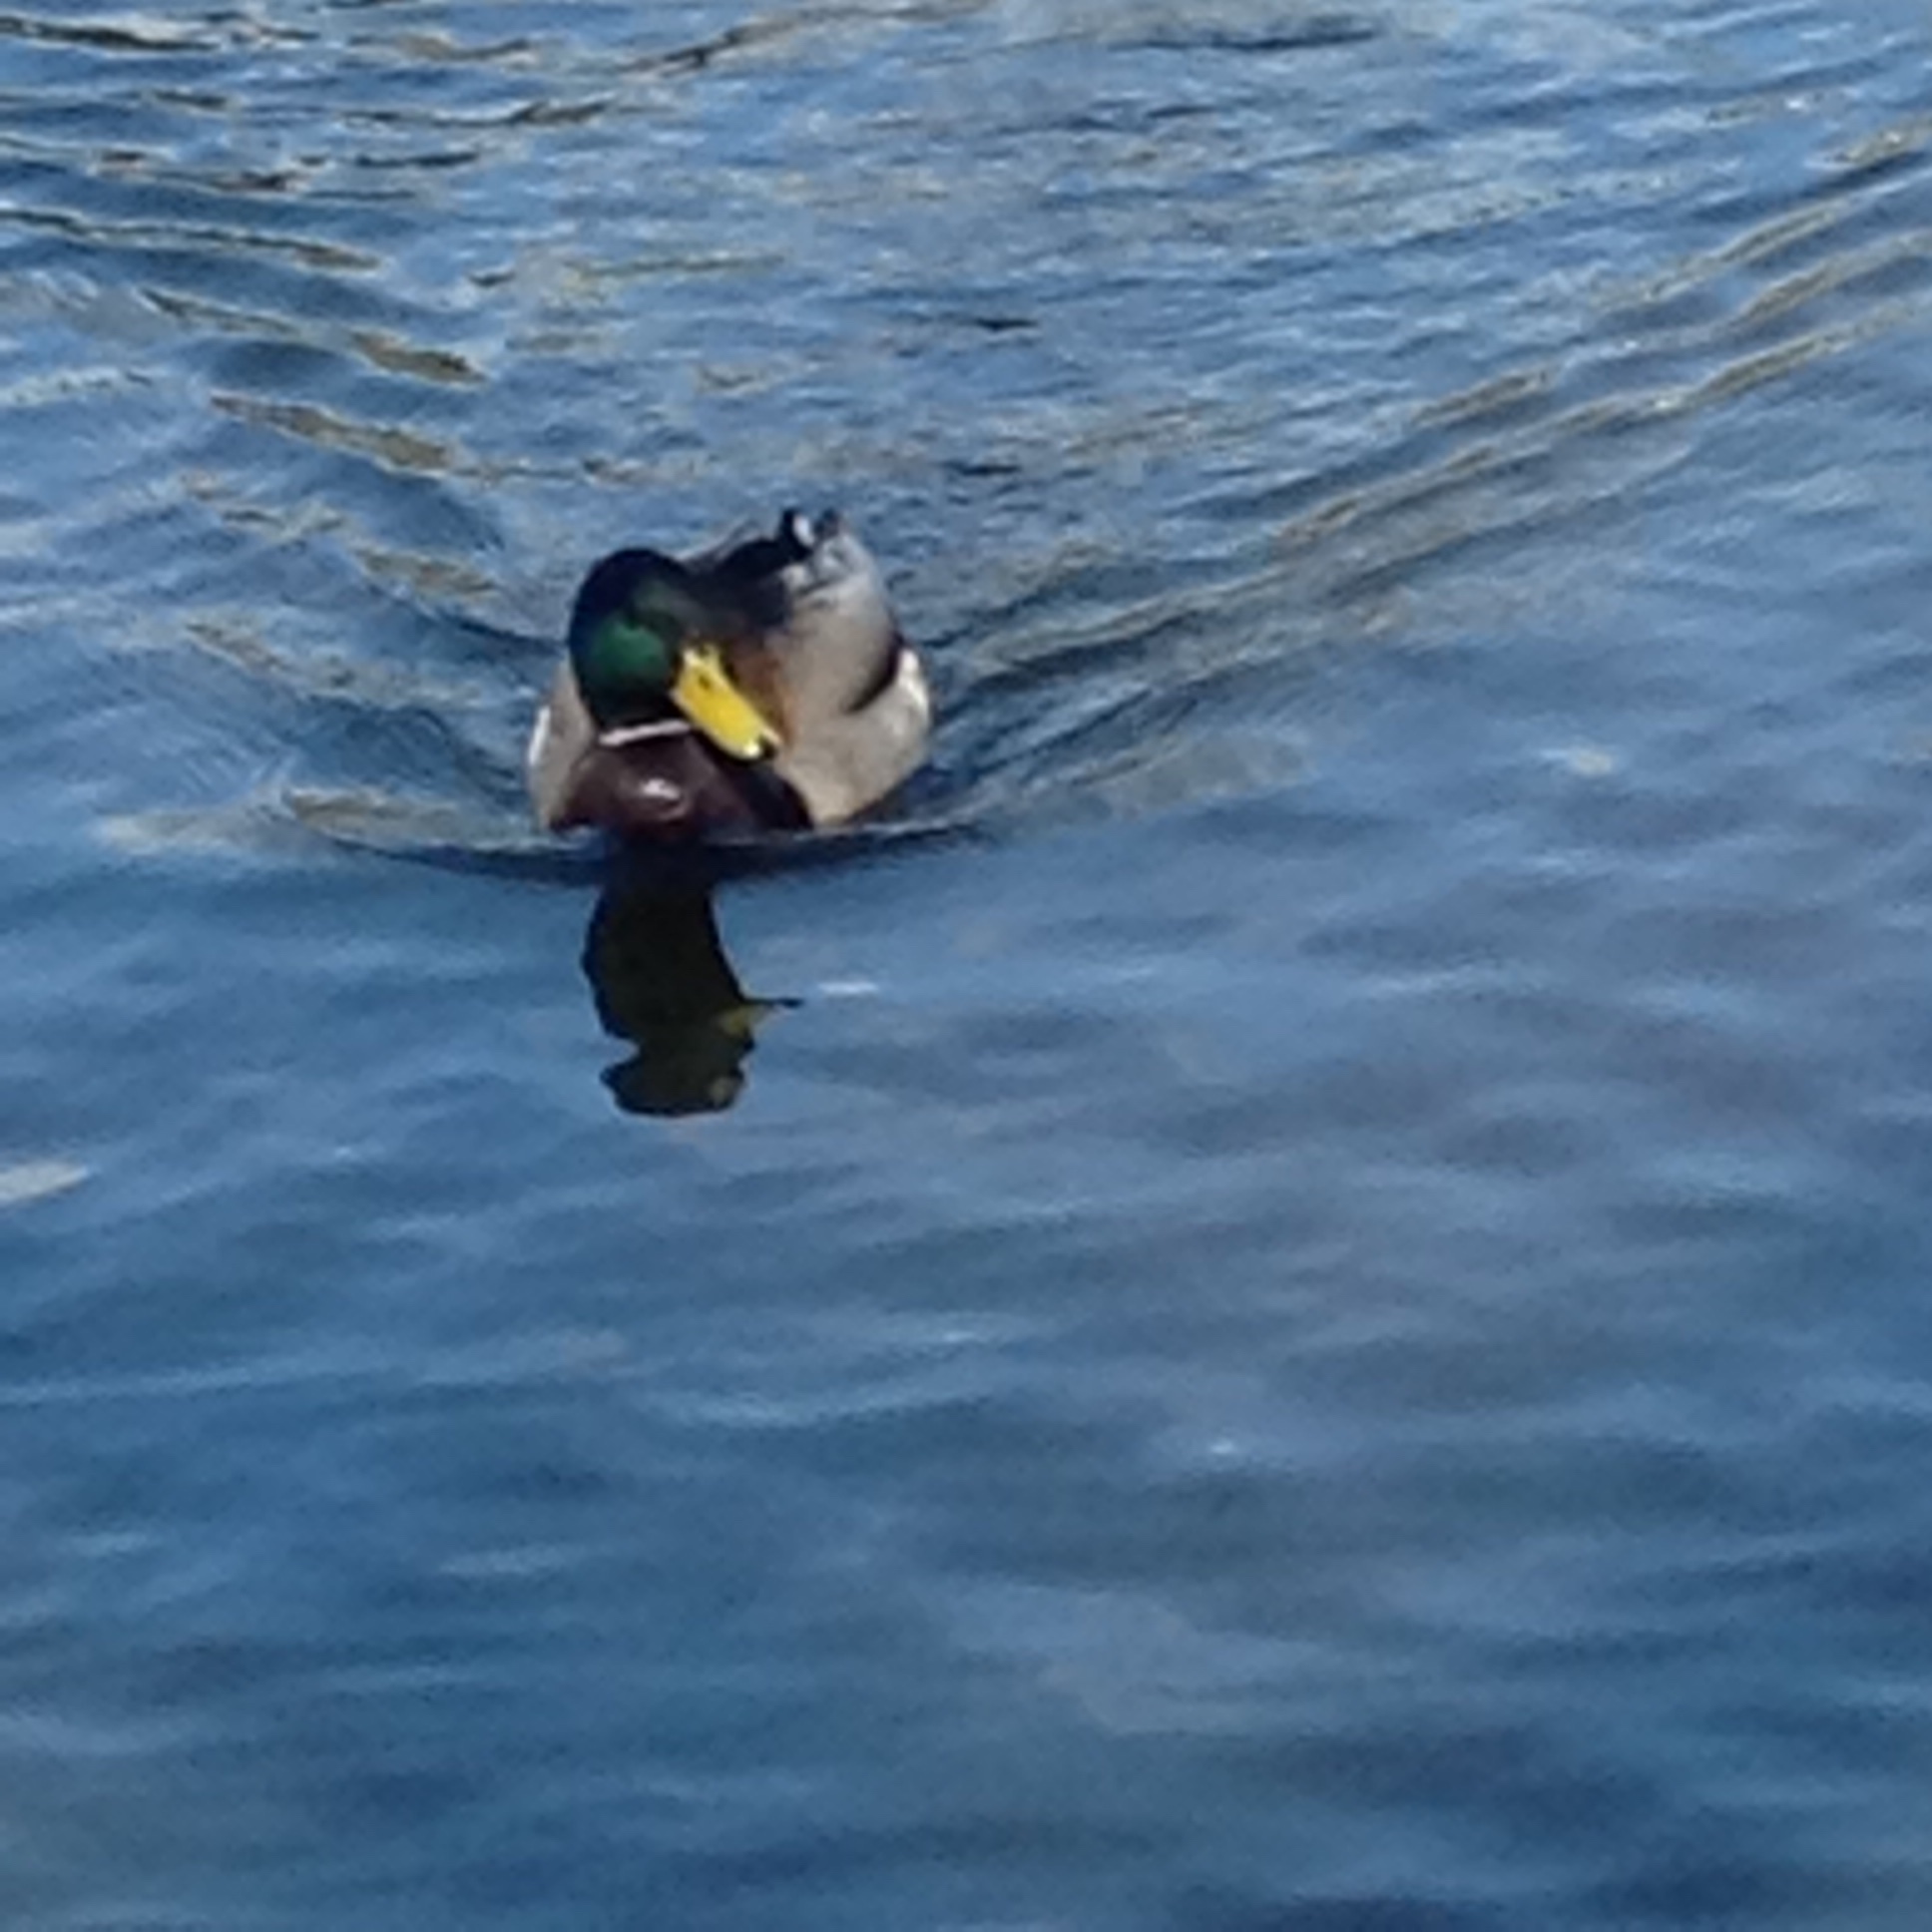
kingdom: Animalia
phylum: Chordata
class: Aves
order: Anseriformes
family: Anatidae
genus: Anas
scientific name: Anas platyrhynchos
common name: Mallard
